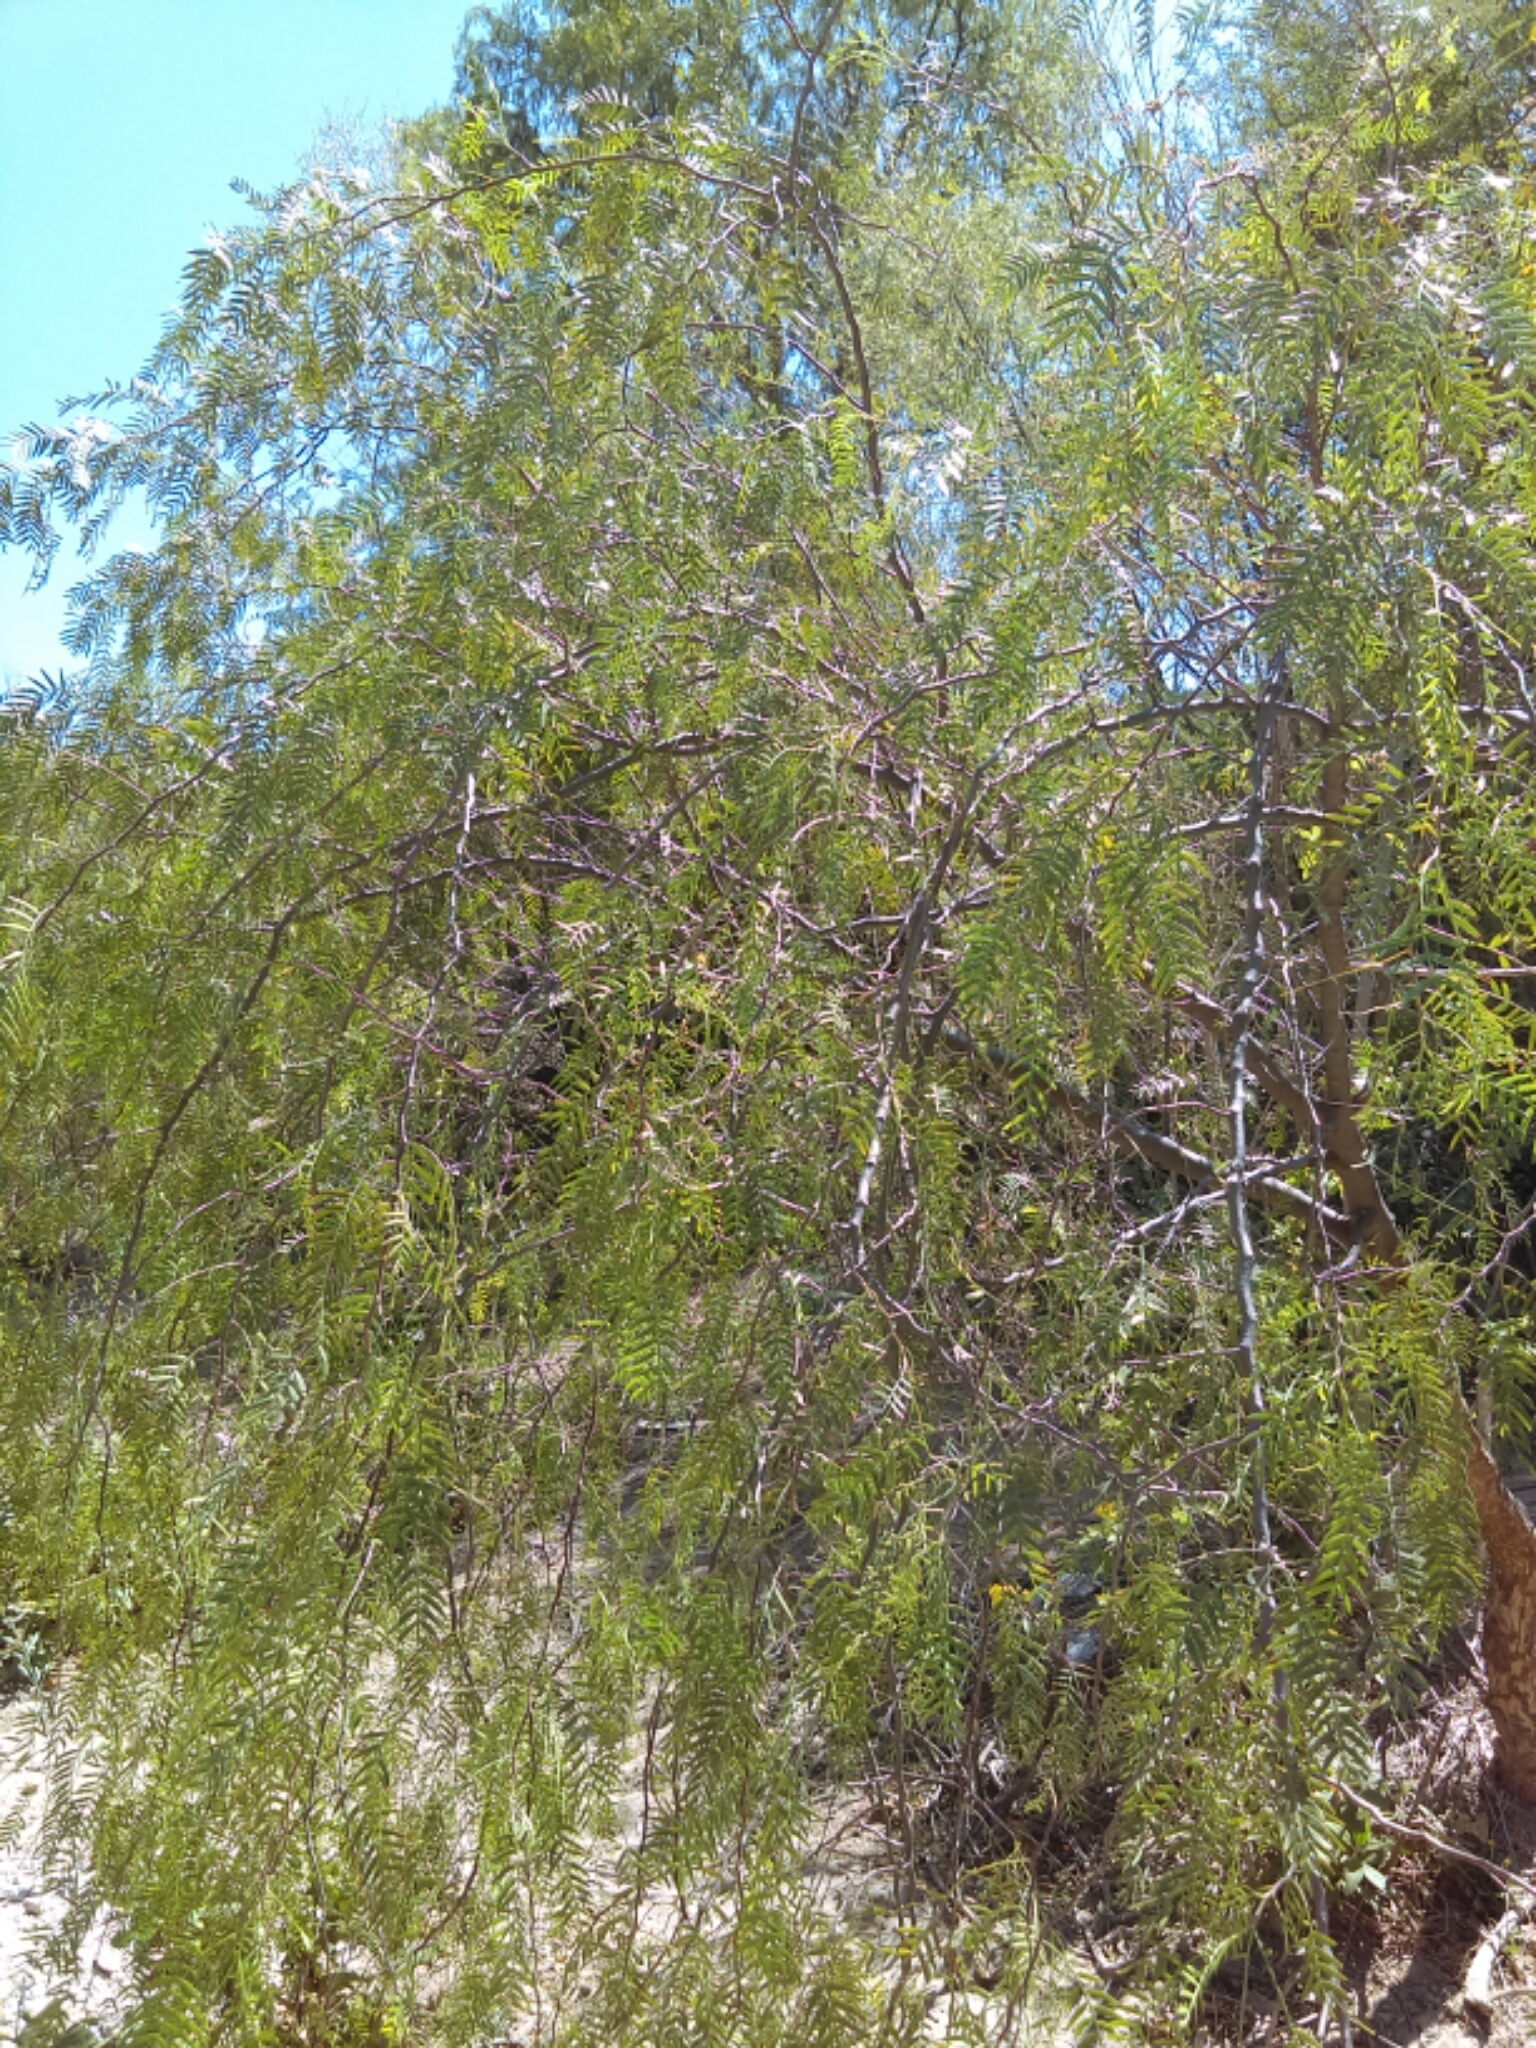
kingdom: Plantae
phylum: Tracheophyta
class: Magnoliopsida
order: Sapindales
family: Anacardiaceae
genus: Schinus
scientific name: Schinus molle
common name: Peruvian peppertree
